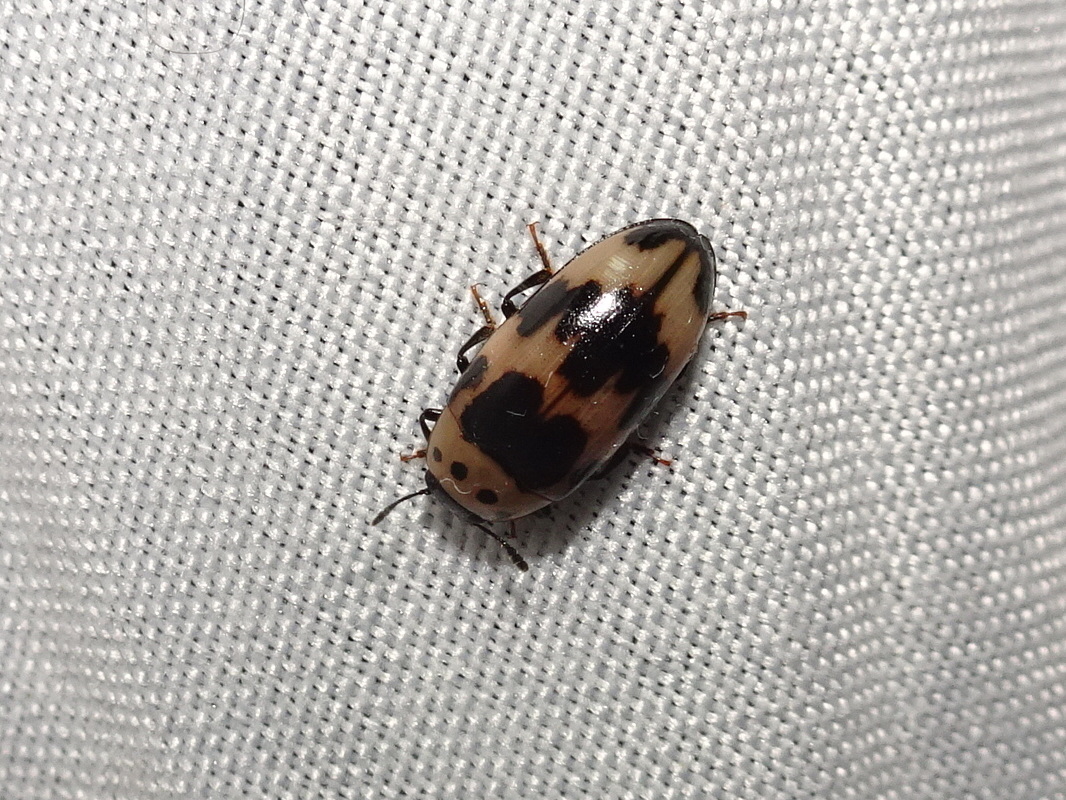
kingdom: Animalia
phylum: Arthropoda
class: Insecta
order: Coleoptera
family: Erotylidae
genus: Ischyrus
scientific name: Ischyrus quadripunctatus
